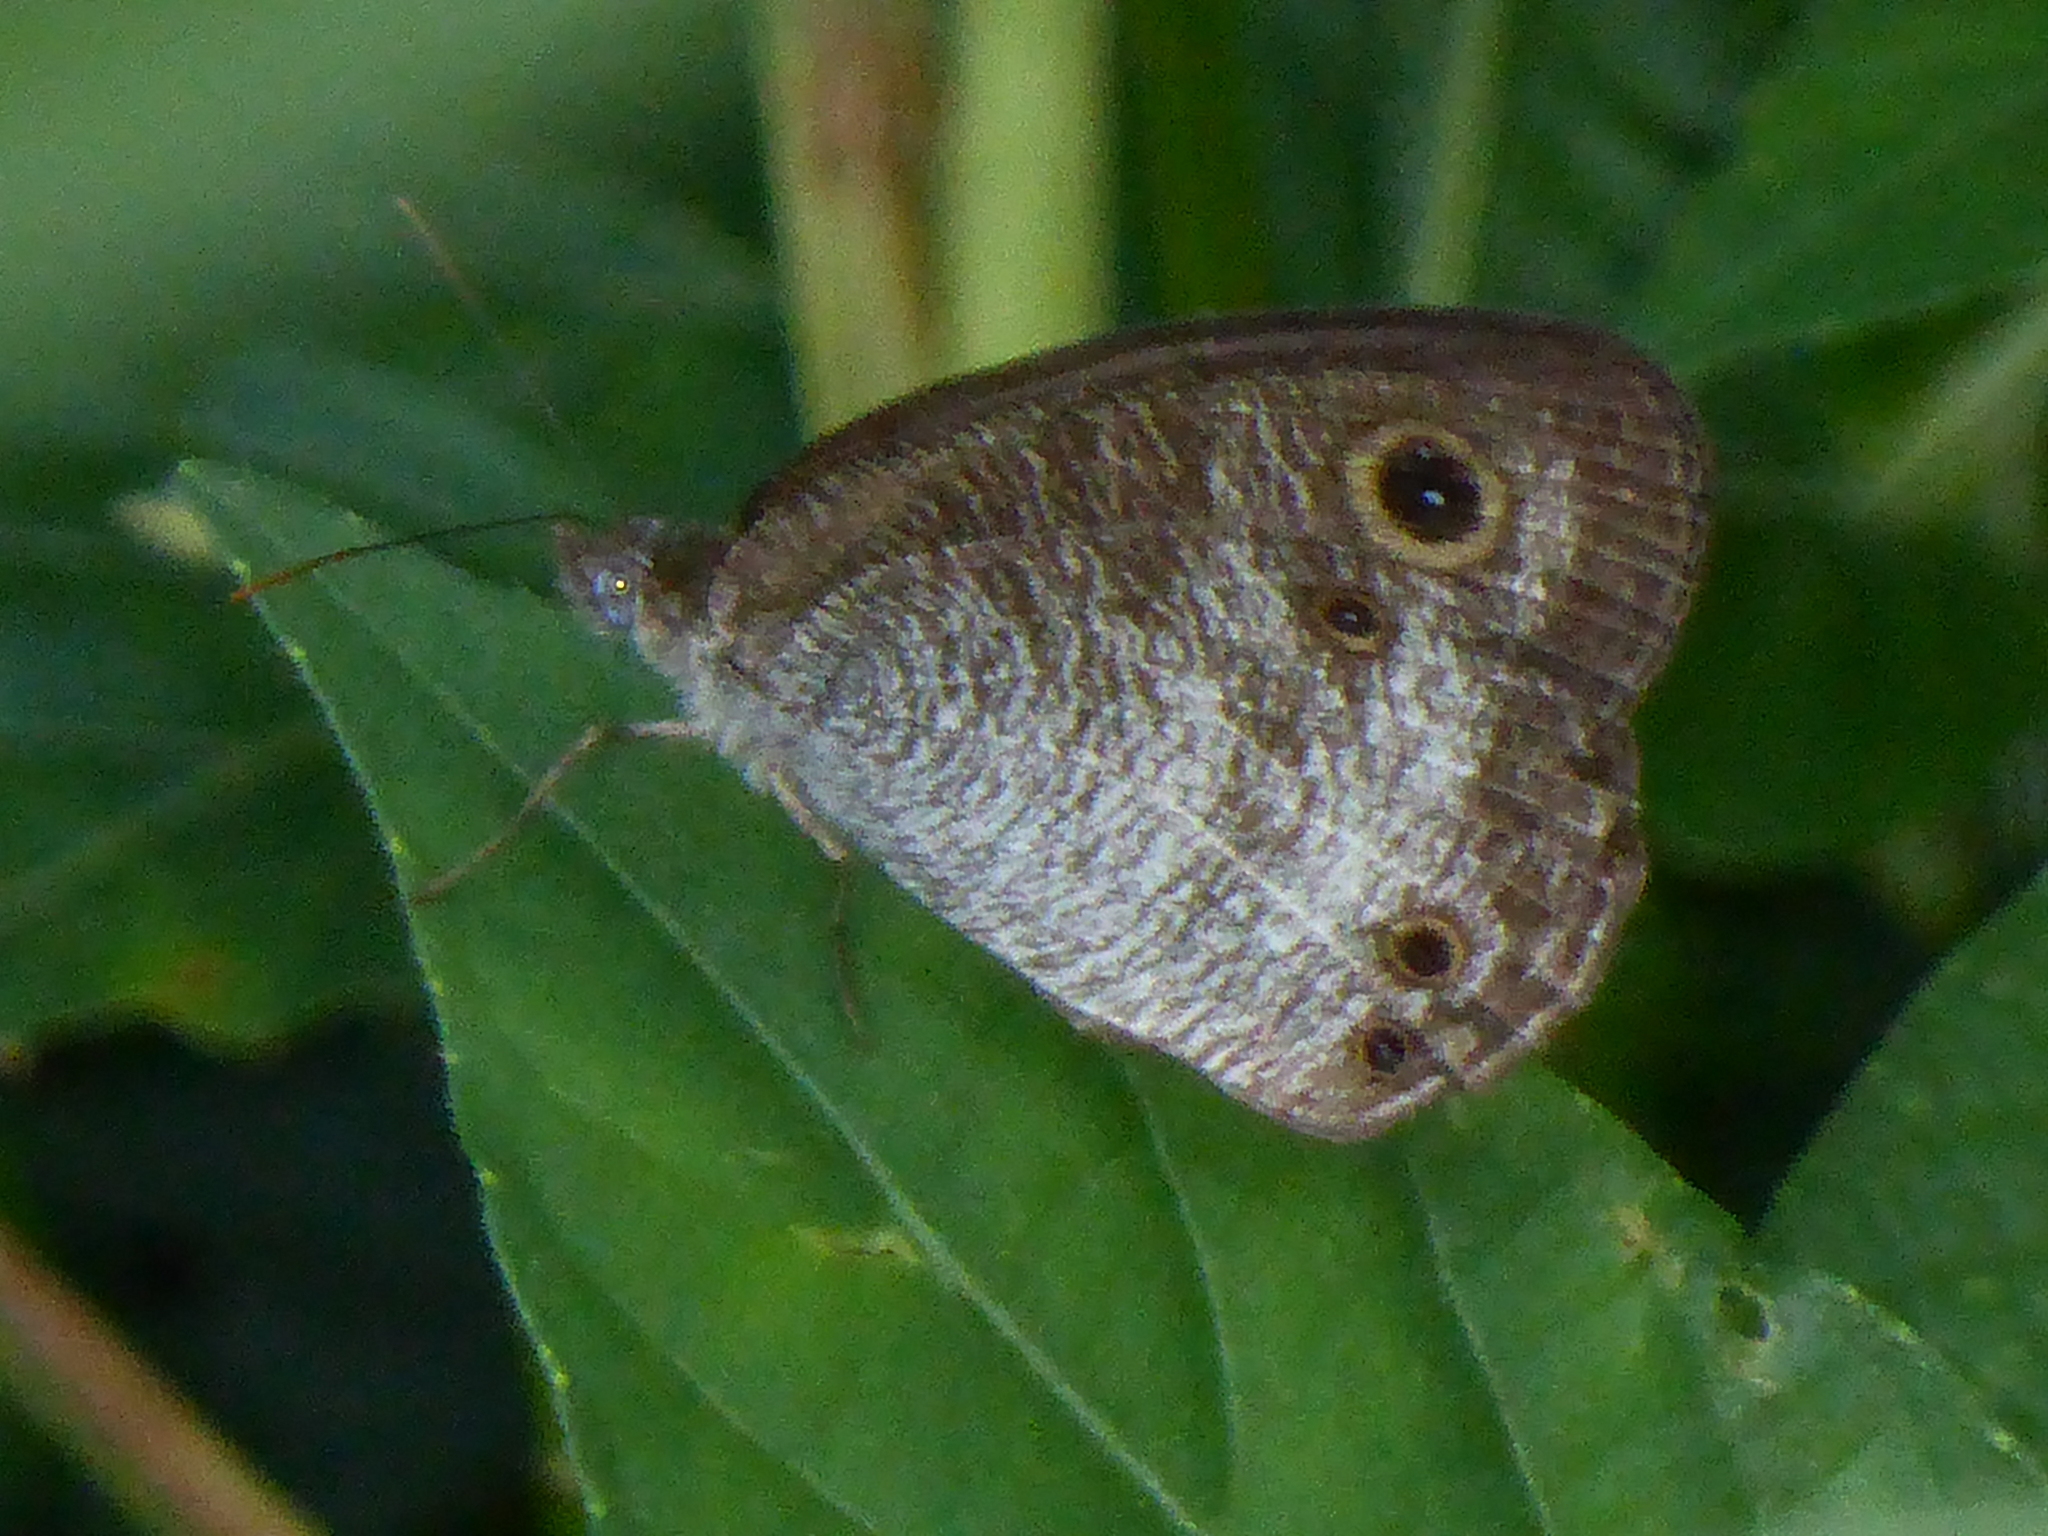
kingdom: Animalia
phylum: Arthropoda
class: Insecta
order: Lepidoptera
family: Nymphalidae
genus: Ypthima
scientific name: Ypthima pandocus
